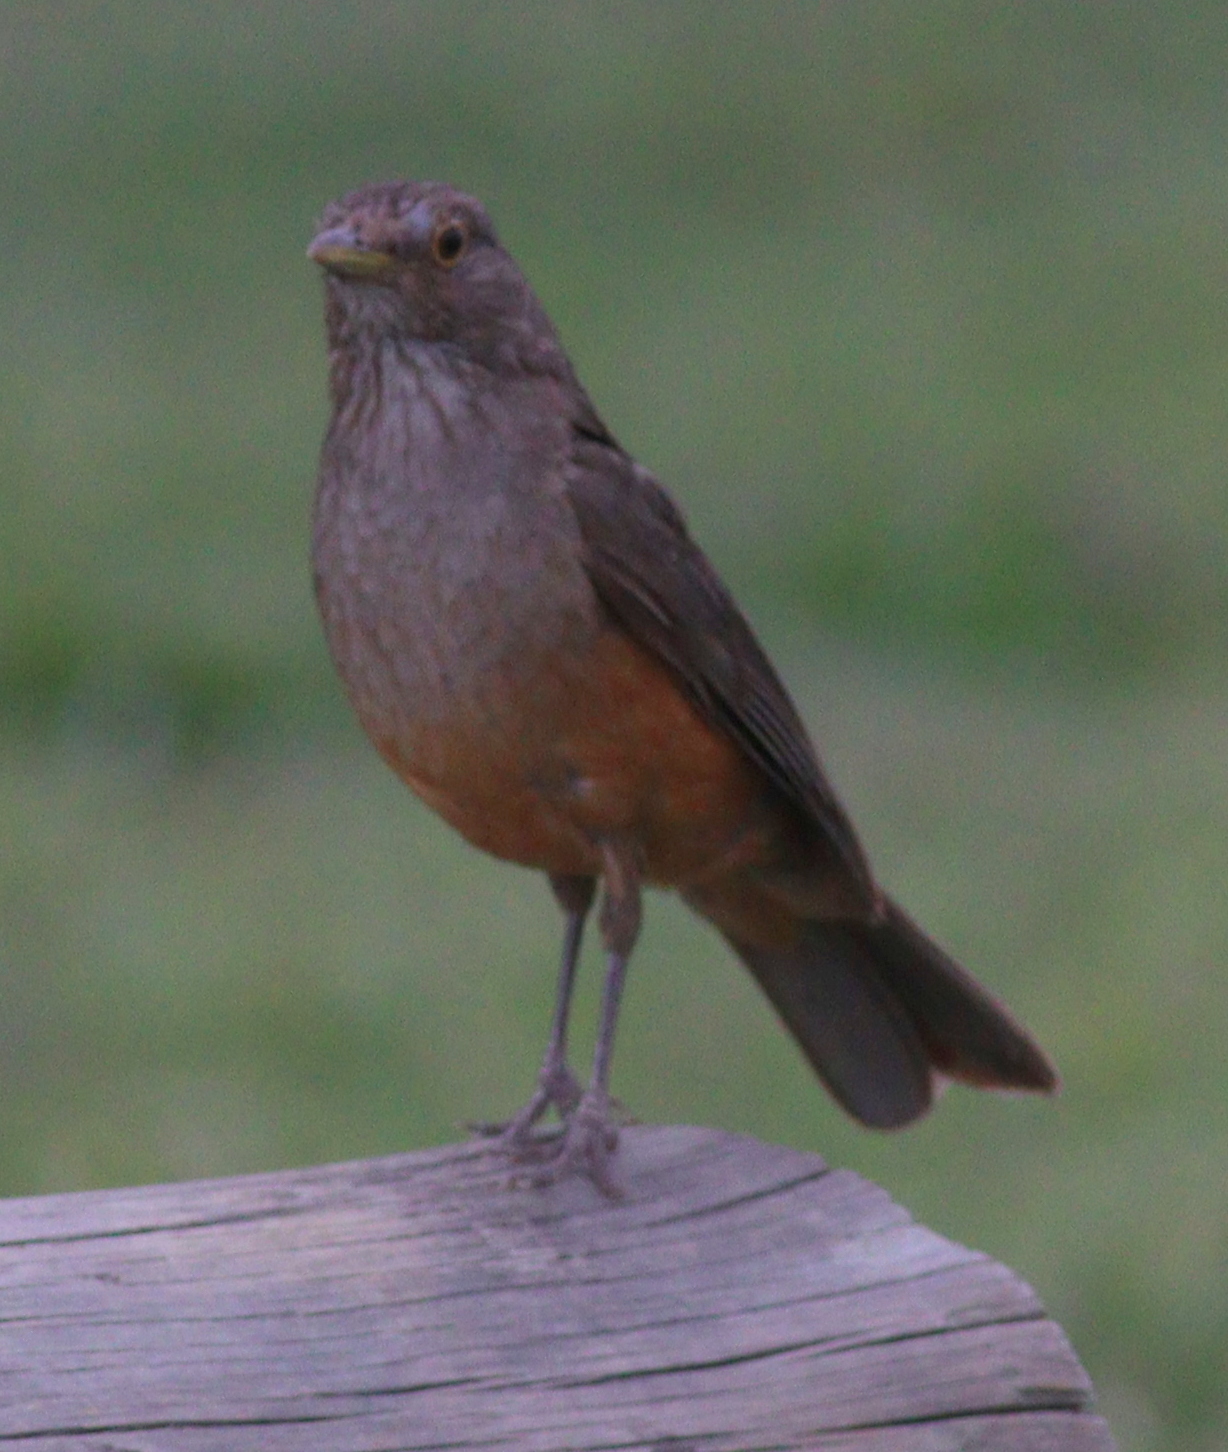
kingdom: Animalia
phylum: Chordata
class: Aves
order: Passeriformes
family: Turdidae
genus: Turdus
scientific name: Turdus rufiventris
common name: Rufous-bellied thrush
